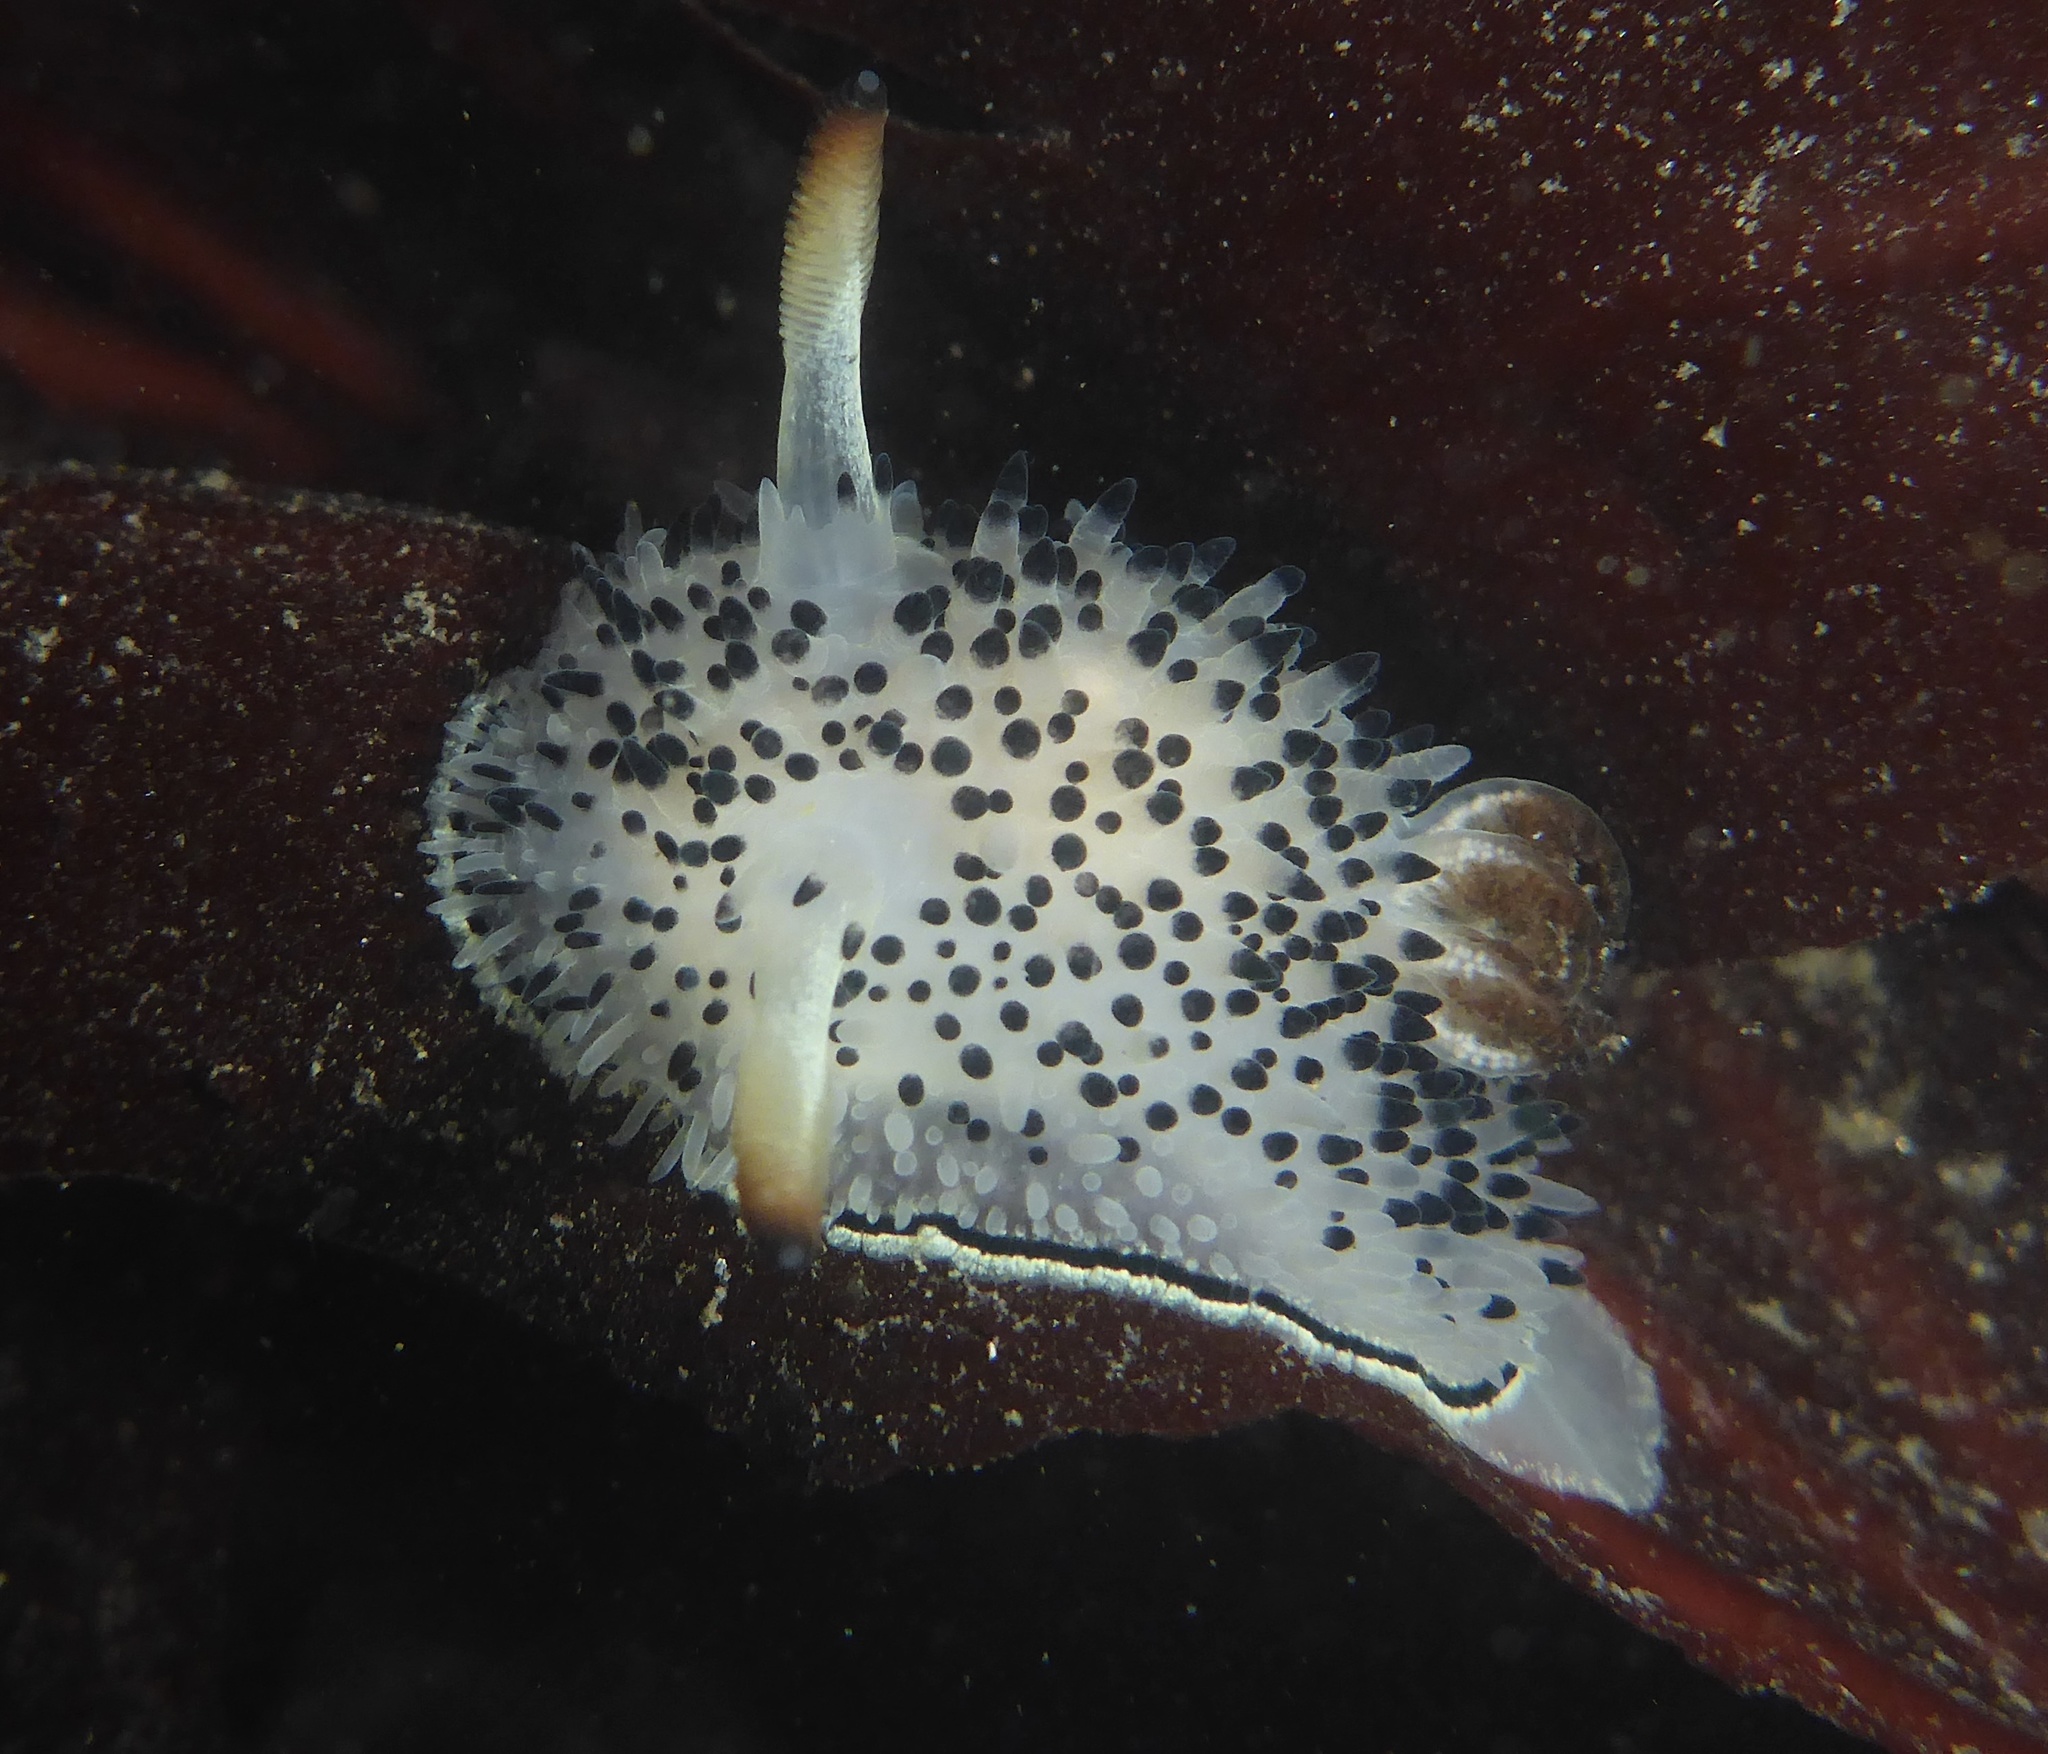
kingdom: Animalia
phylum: Mollusca
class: Gastropoda
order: Nudibranchia
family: Onchidorididae
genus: Acanthodoris
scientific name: Acanthodoris rhodoceras
